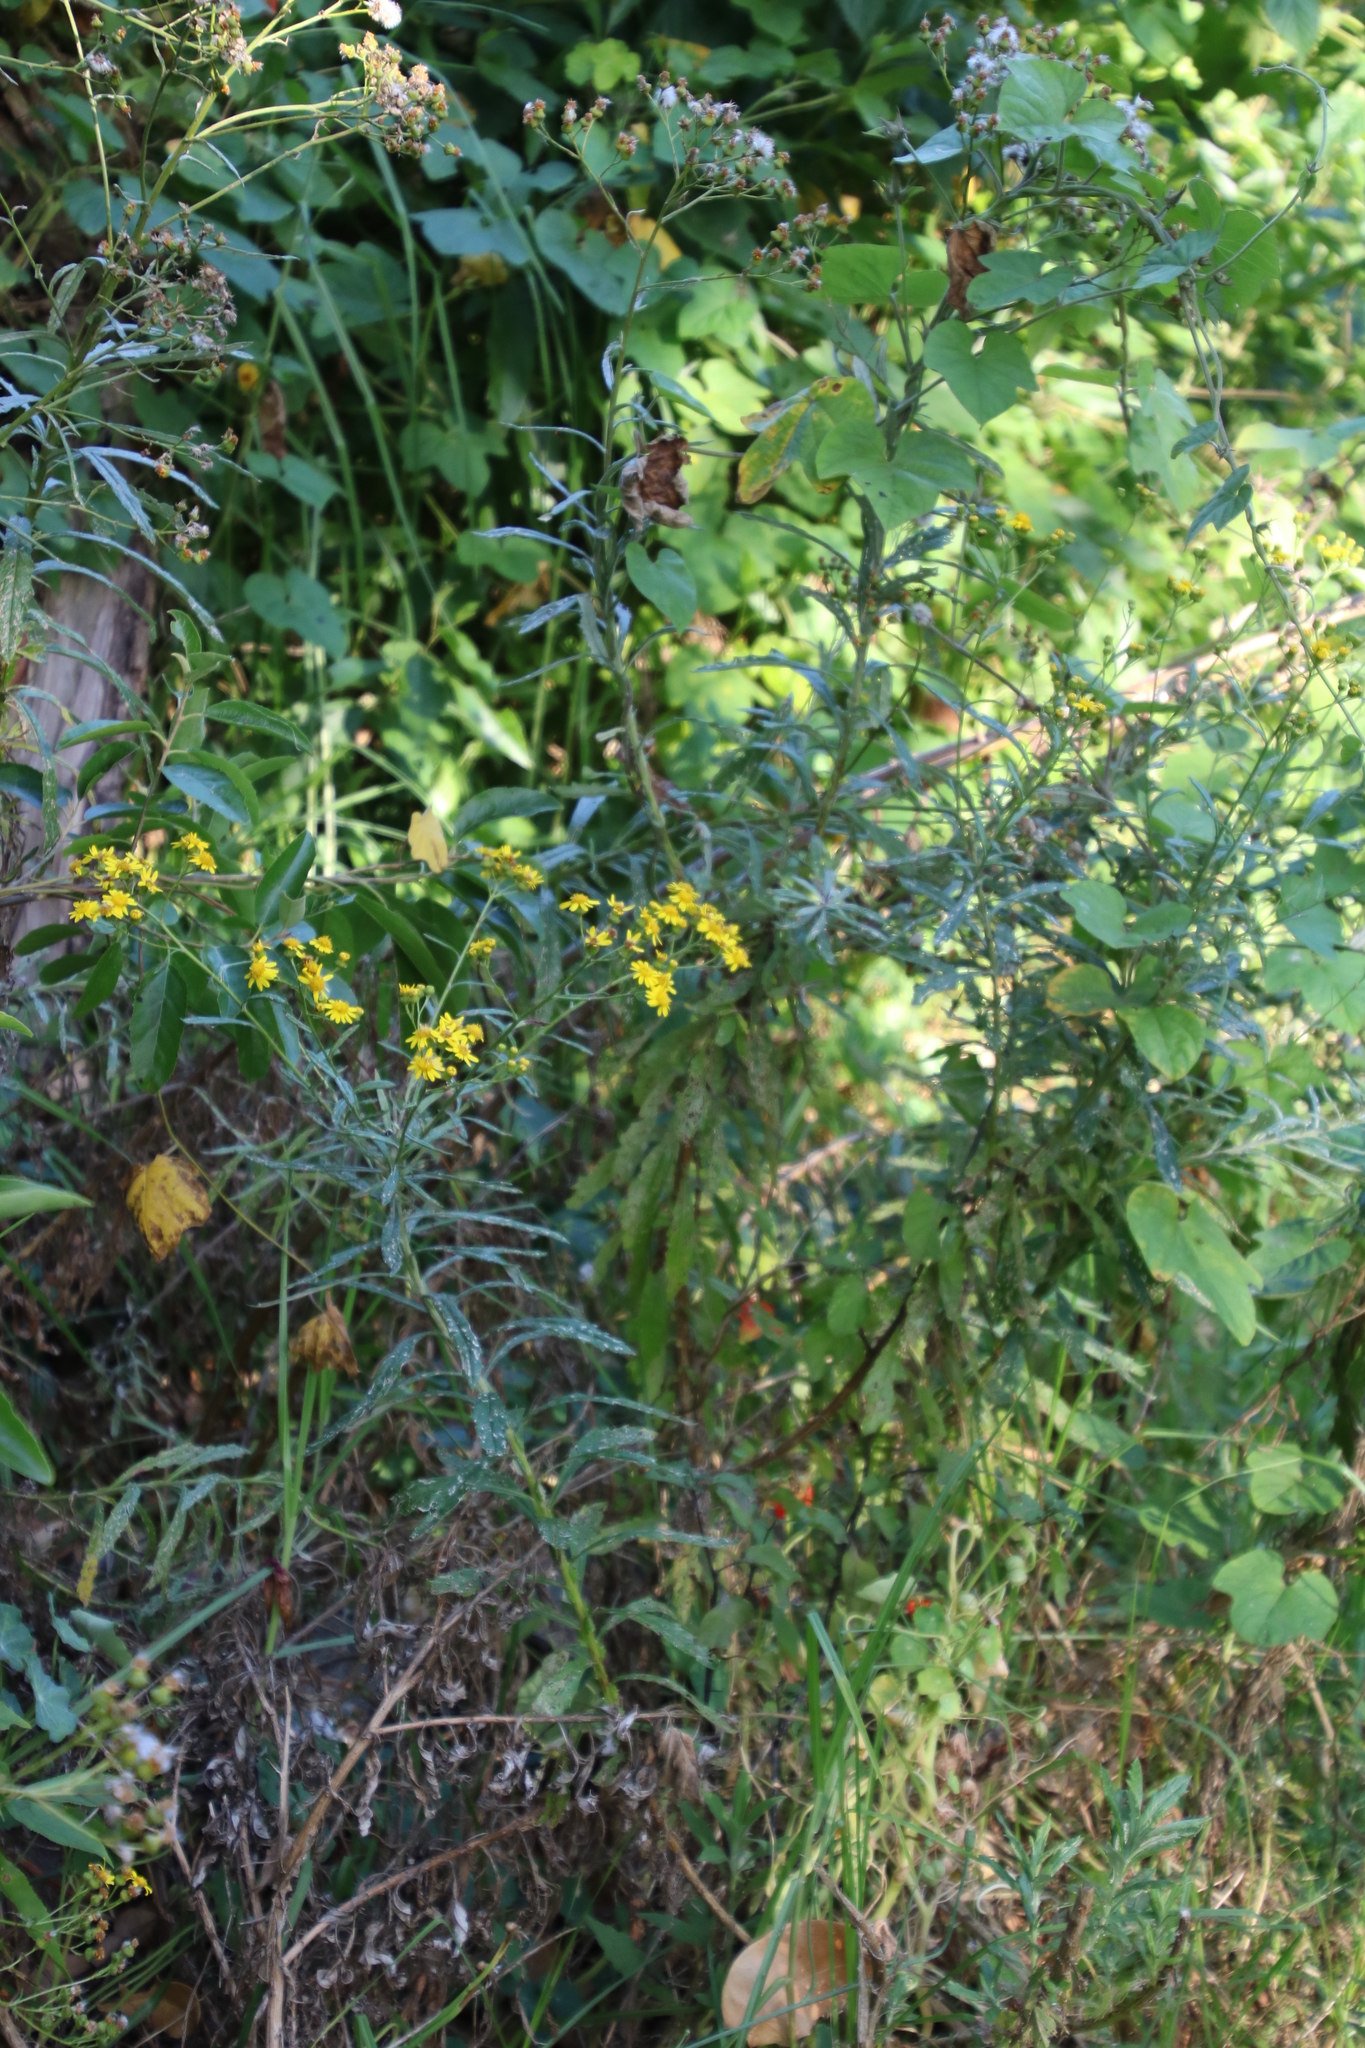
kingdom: Plantae
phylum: Tracheophyta
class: Magnoliopsida
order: Asterales
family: Asteraceae
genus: Senecio
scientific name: Senecio pterophorus
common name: Shoddy ragwort
